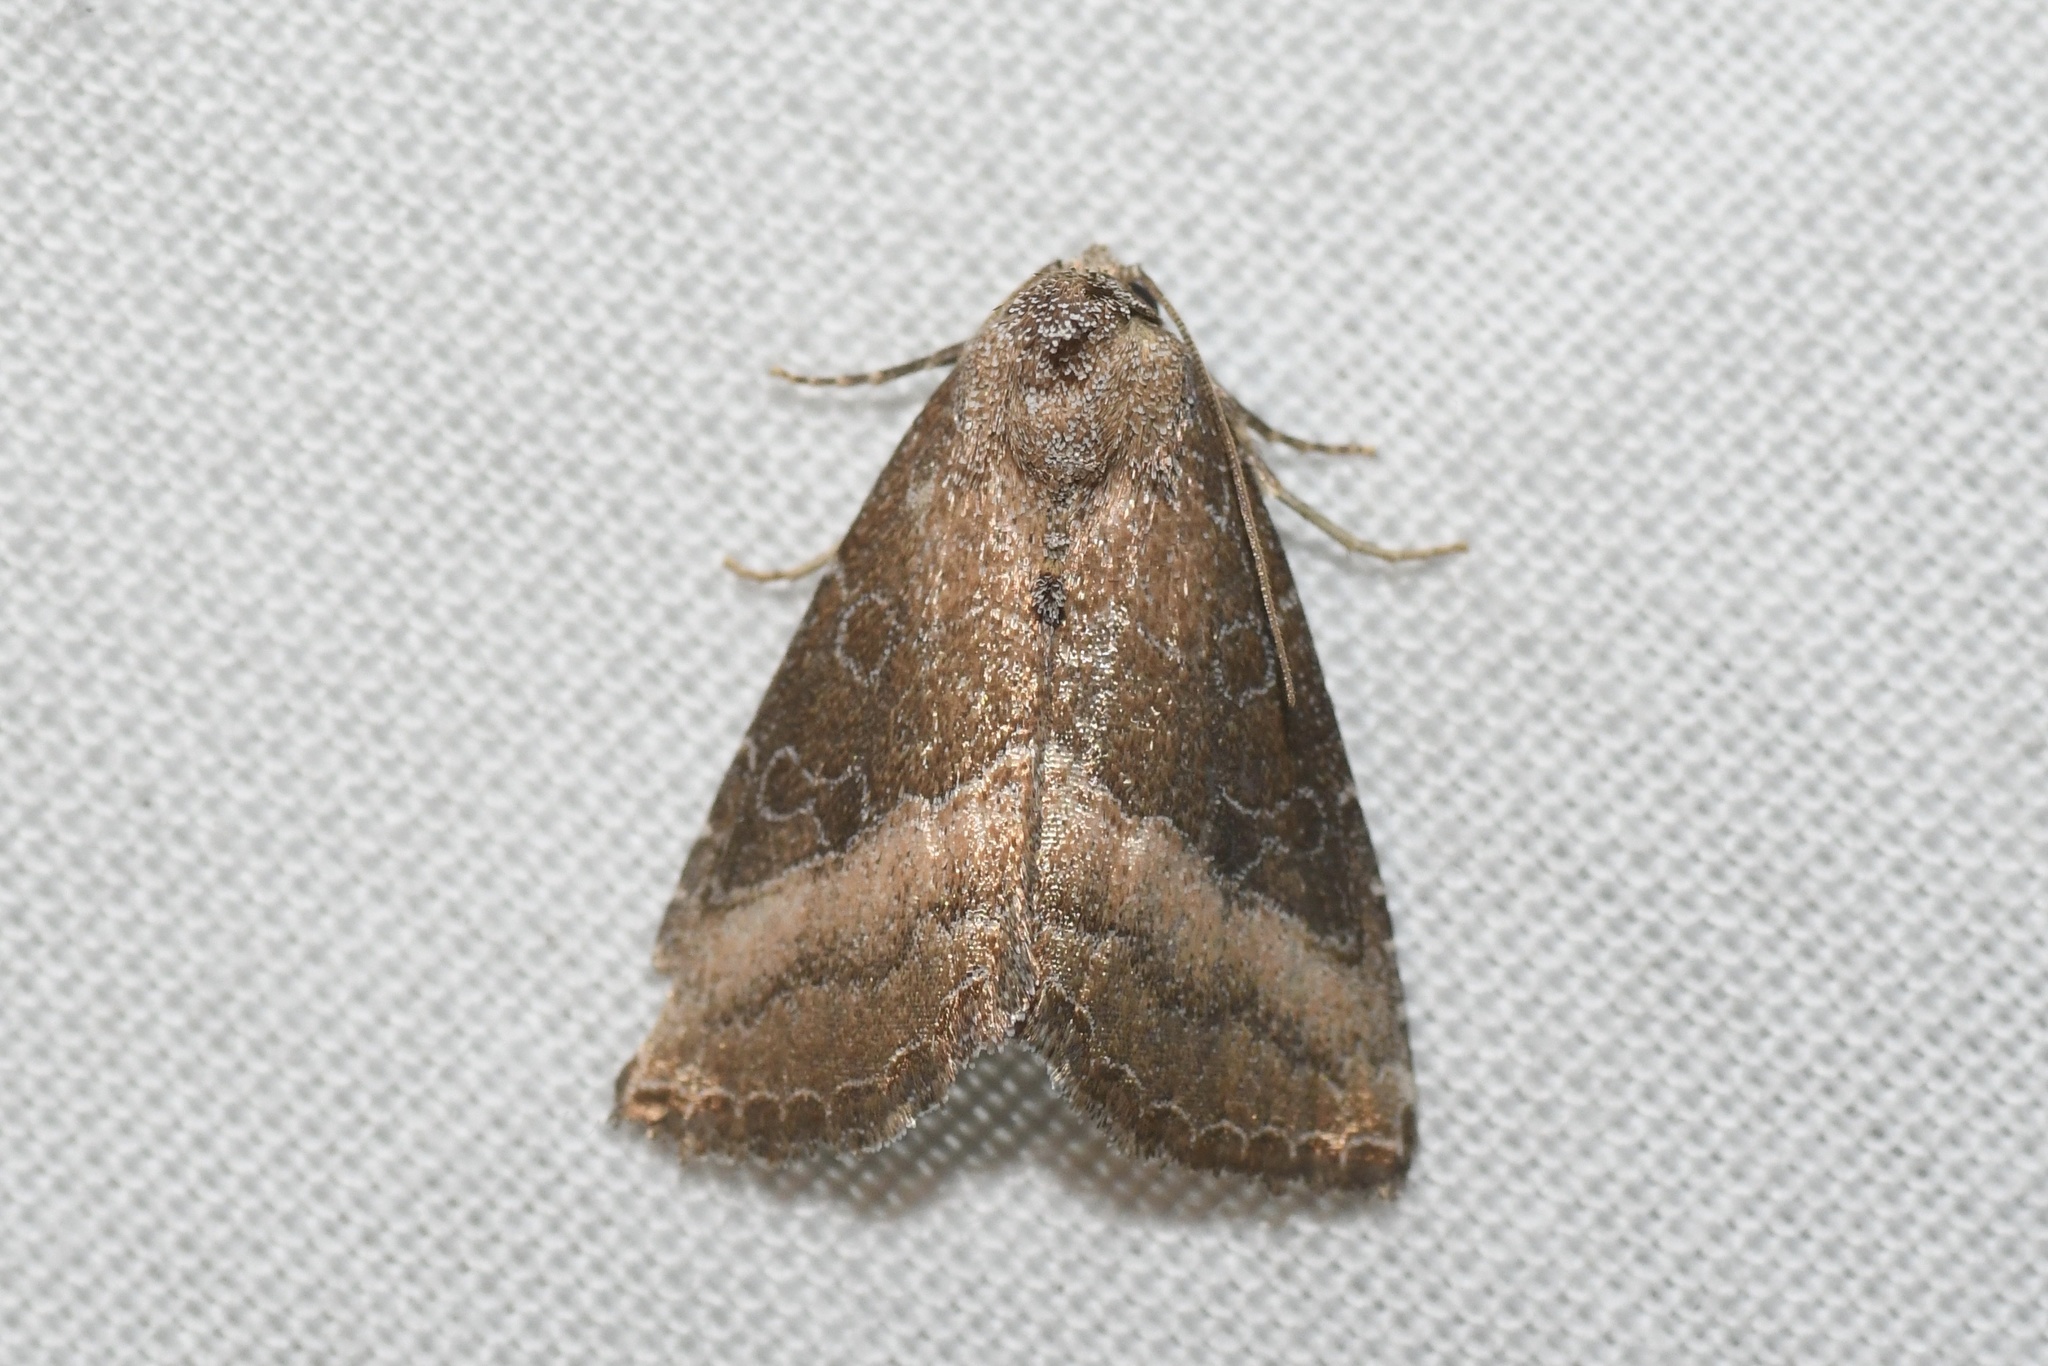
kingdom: Animalia
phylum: Arthropoda
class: Insecta
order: Lepidoptera
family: Noctuidae
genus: Ogdoconta
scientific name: Ogdoconta cinereola
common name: Common pinkband
